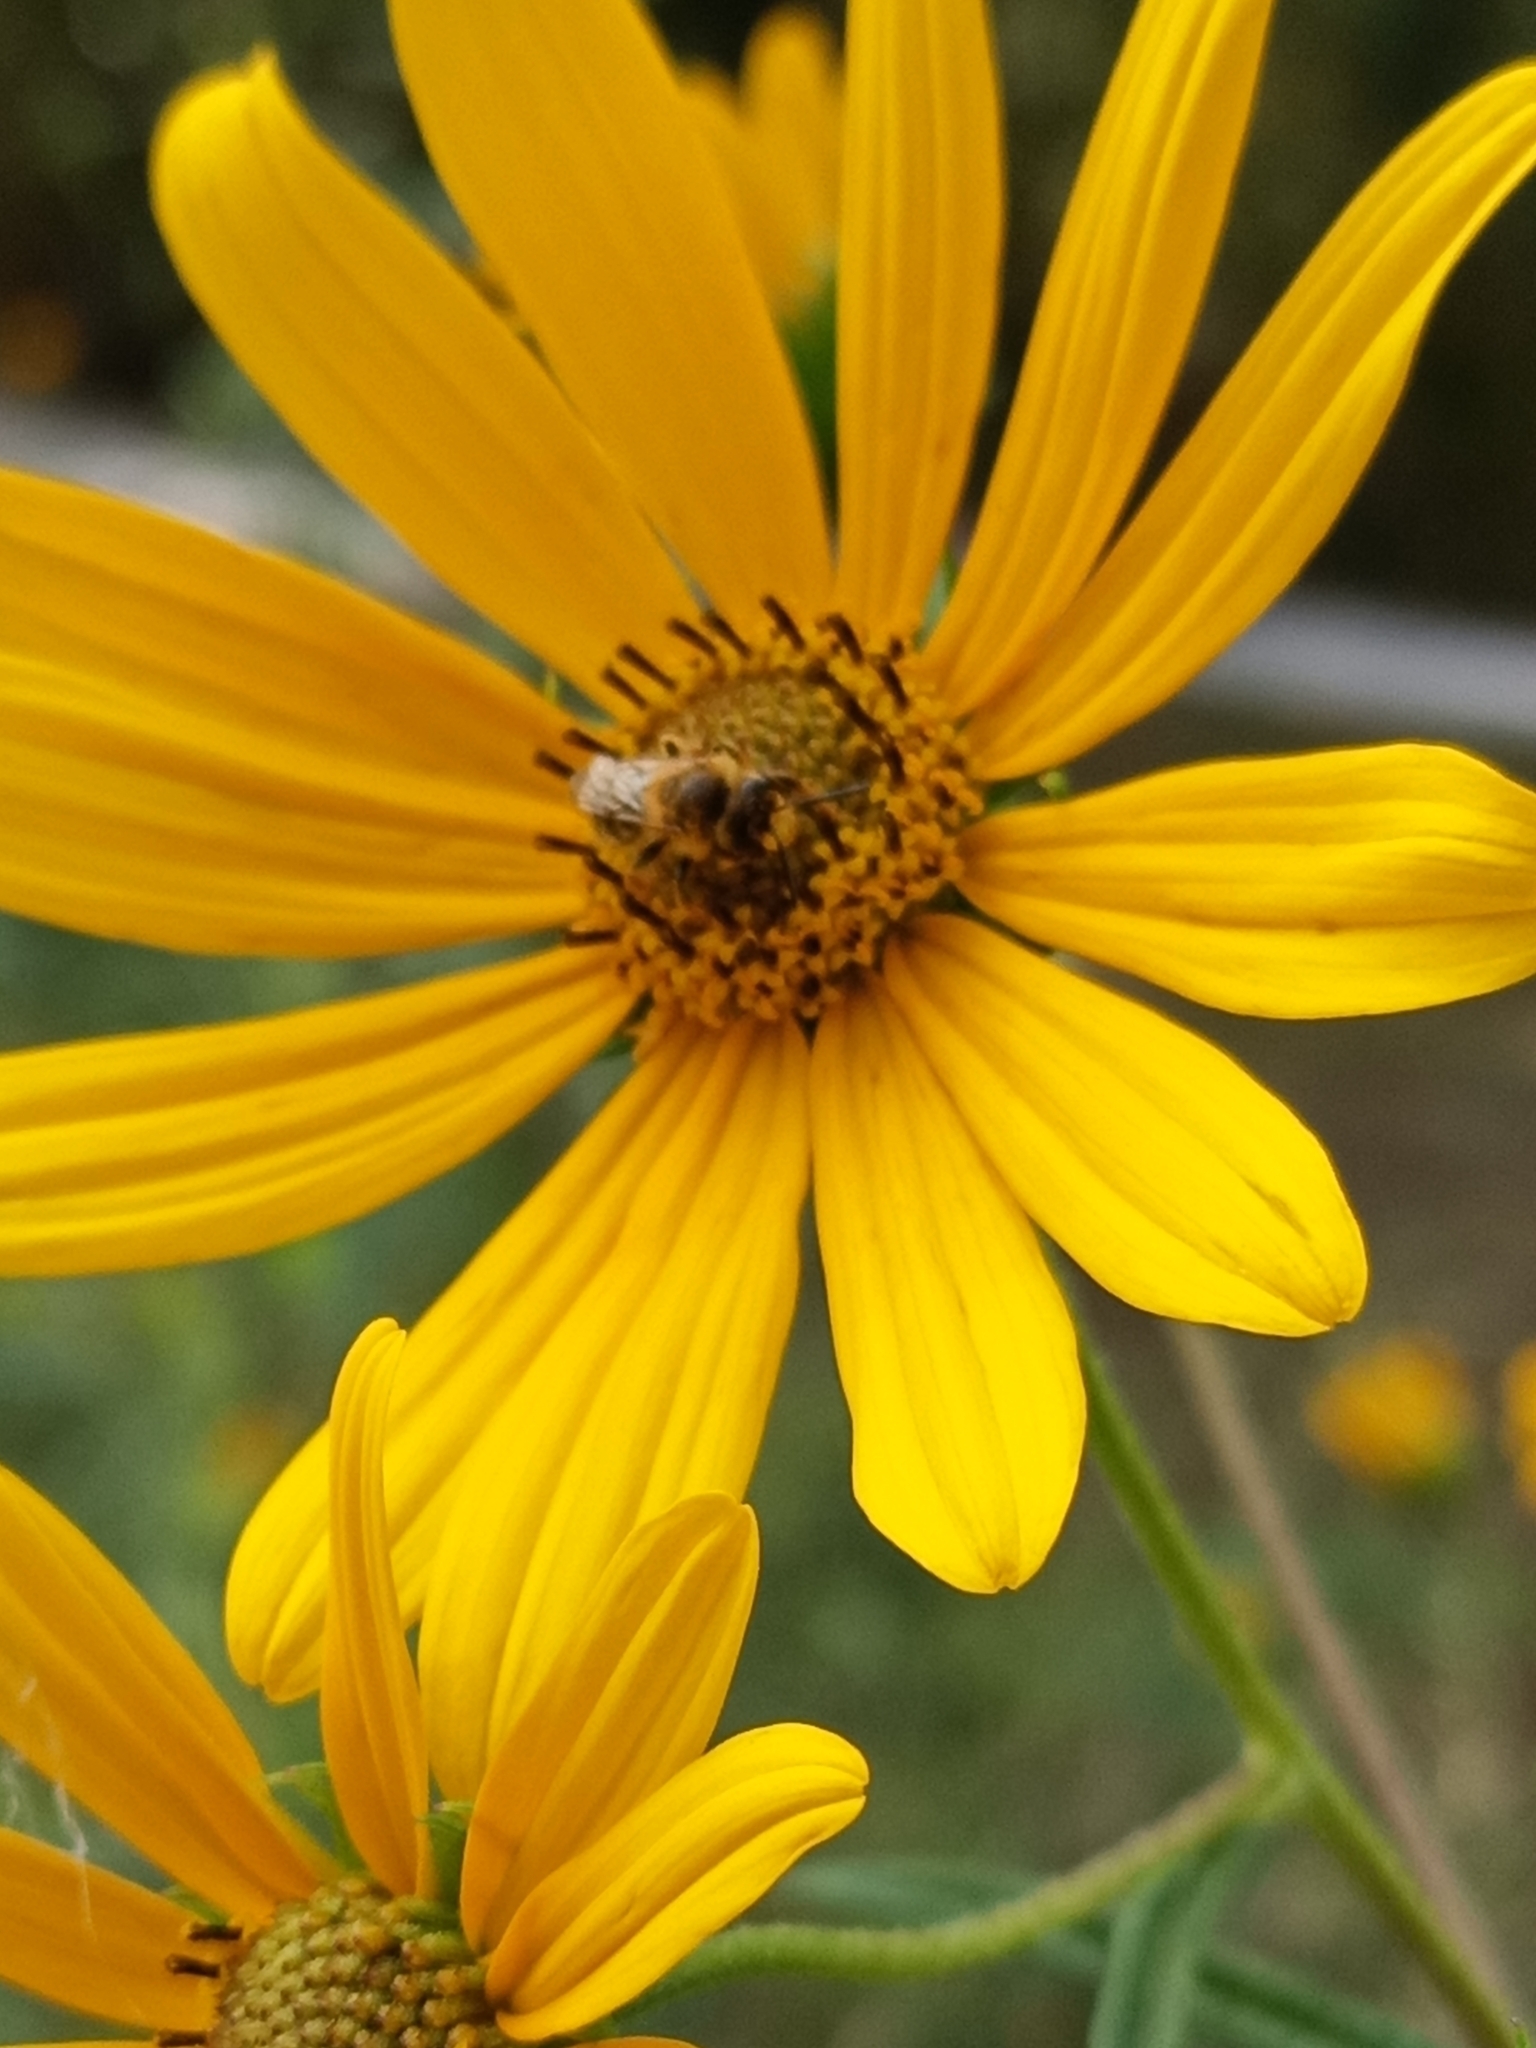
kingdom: Animalia
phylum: Arthropoda
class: Insecta
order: Hymenoptera
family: Andrenidae
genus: Andrena
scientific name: Andrena accepta
